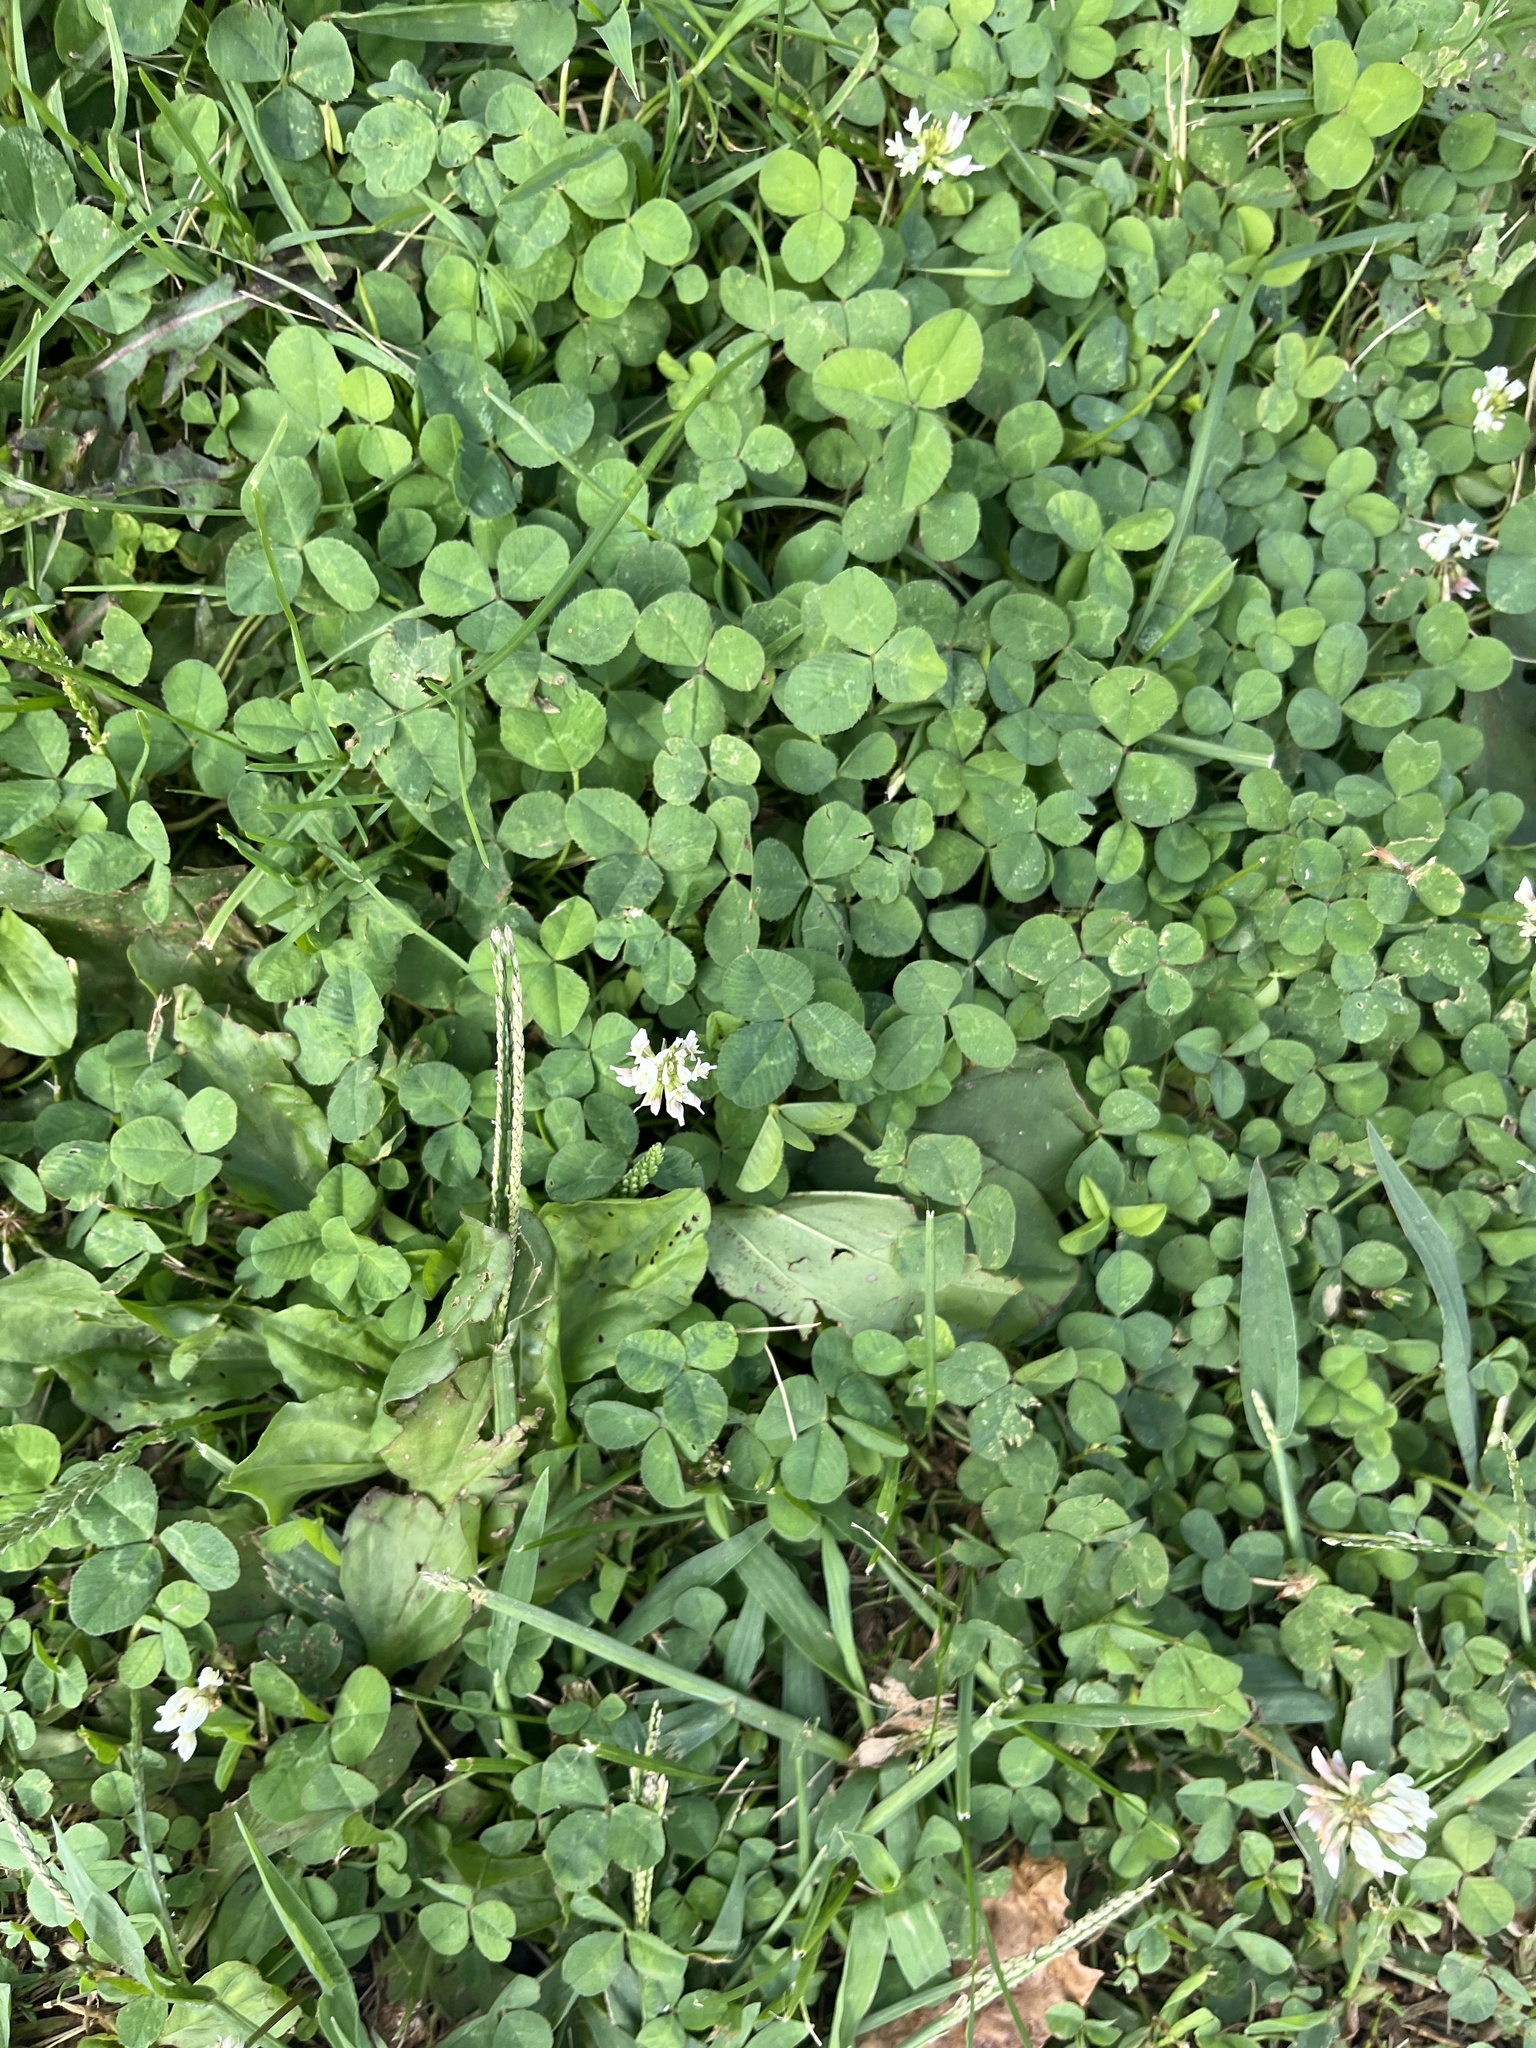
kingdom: Plantae
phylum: Tracheophyta
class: Magnoliopsida
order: Fabales
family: Fabaceae
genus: Trifolium
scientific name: Trifolium repens
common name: White clover
